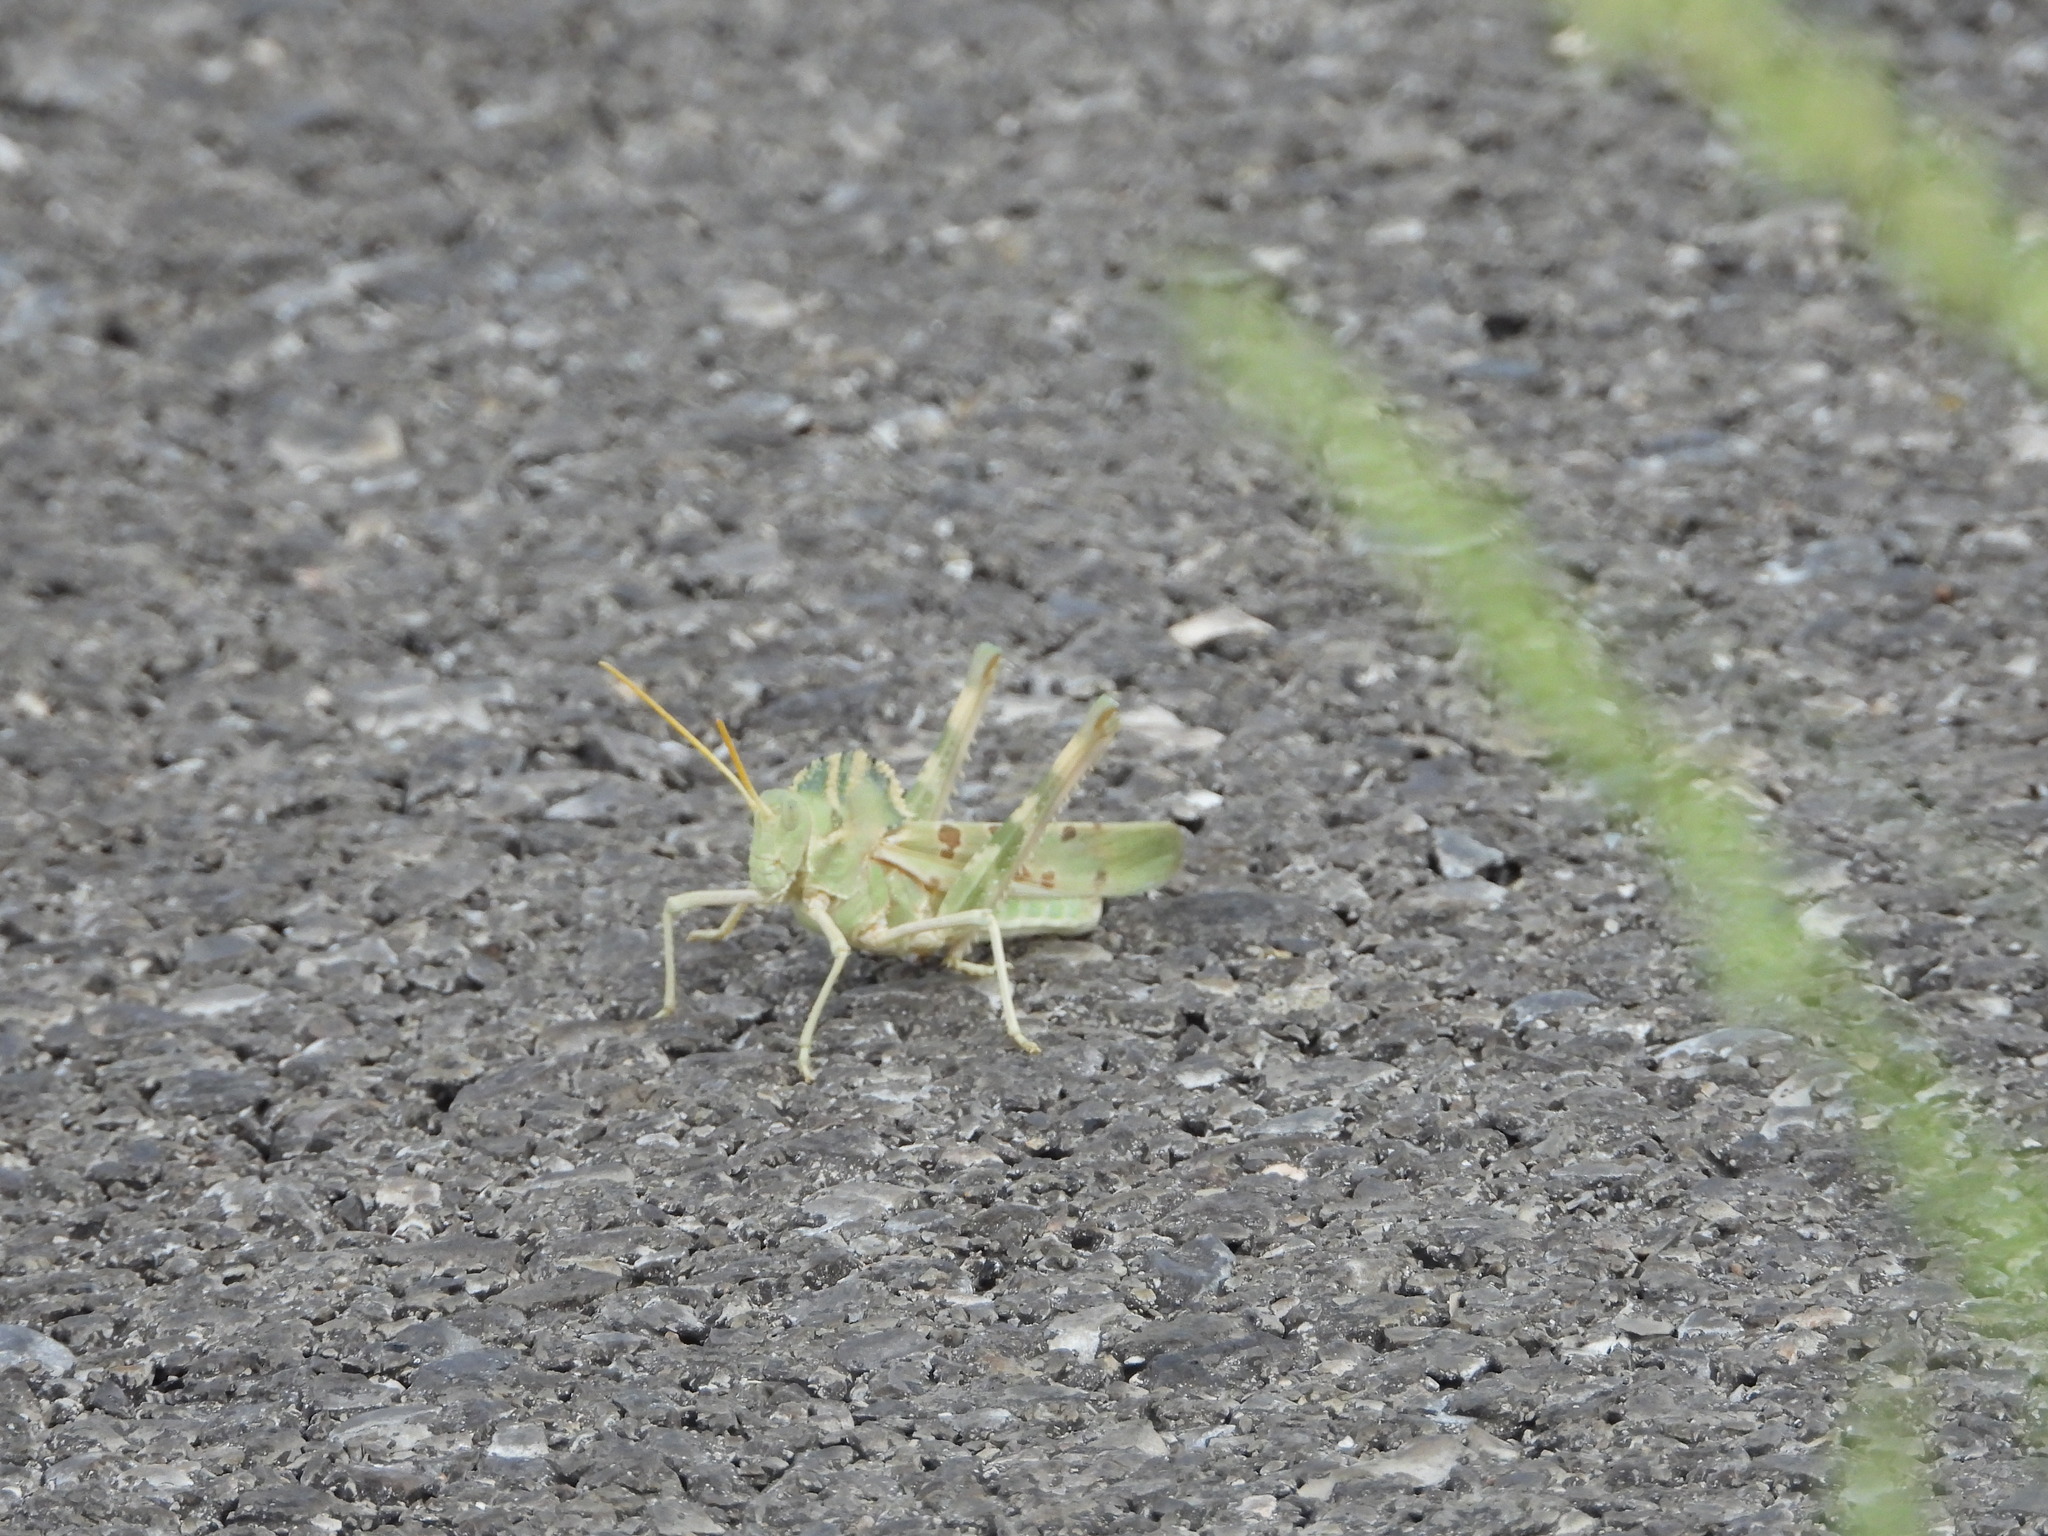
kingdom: Animalia
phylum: Arthropoda
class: Insecta
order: Orthoptera
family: Acrididae
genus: Tropidolophus
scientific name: Tropidolophus formosus
